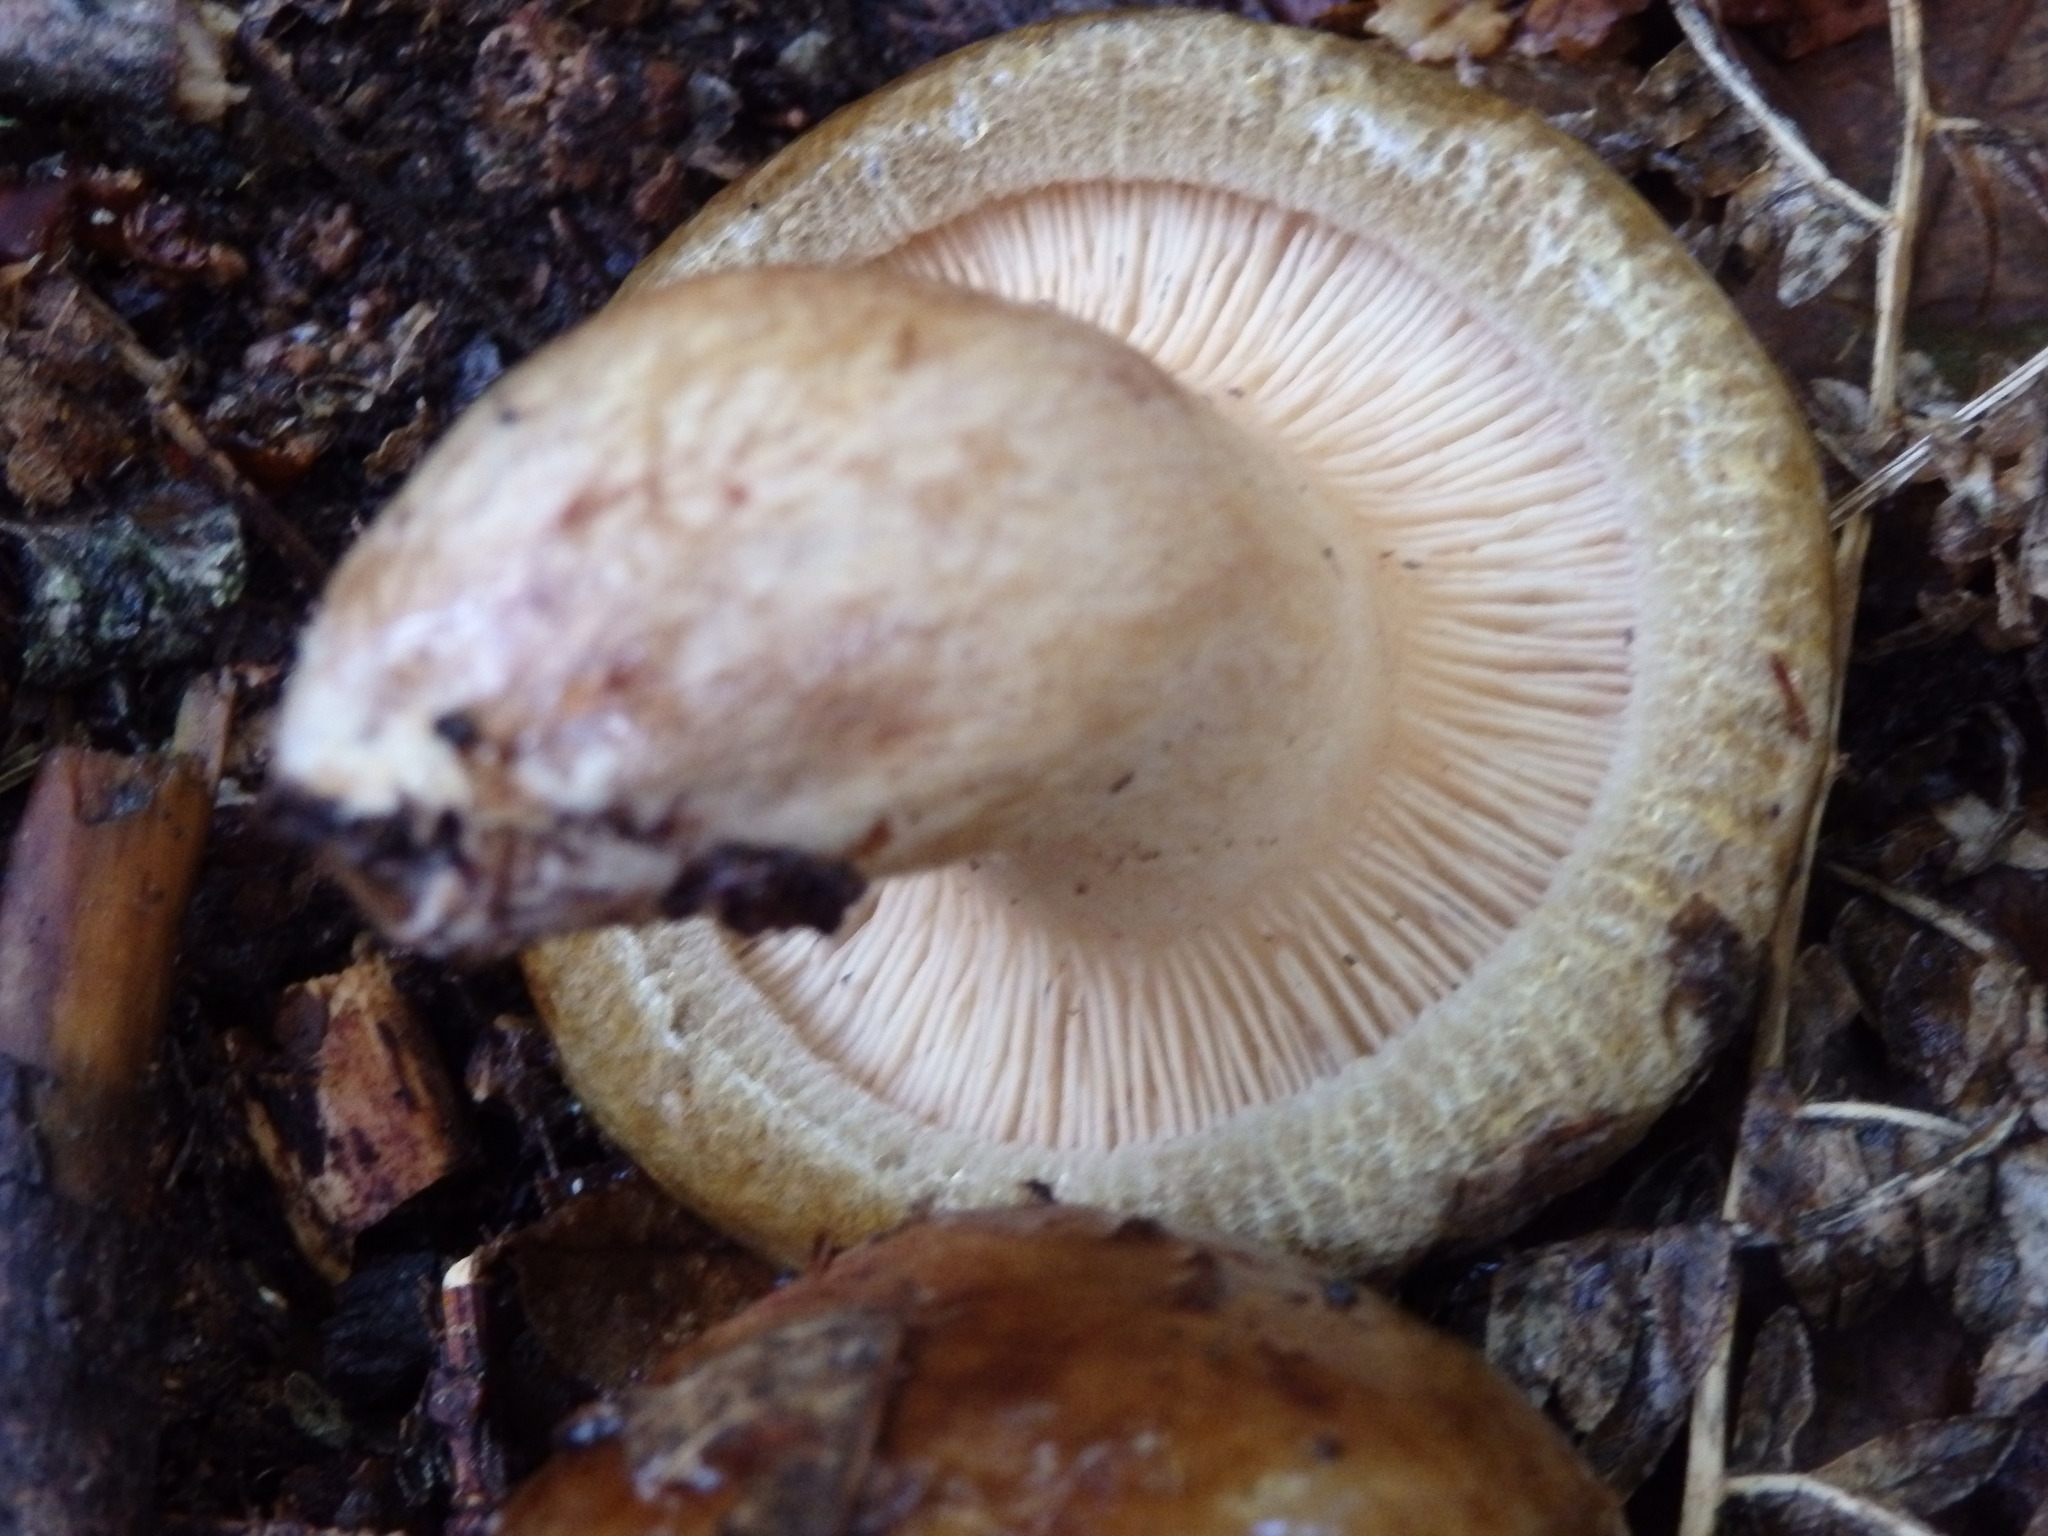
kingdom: Fungi
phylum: Basidiomycota
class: Agaricomycetes
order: Boletales
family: Paxillaceae
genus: Paxillus
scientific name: Paxillus involutus
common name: Brown roll rim
